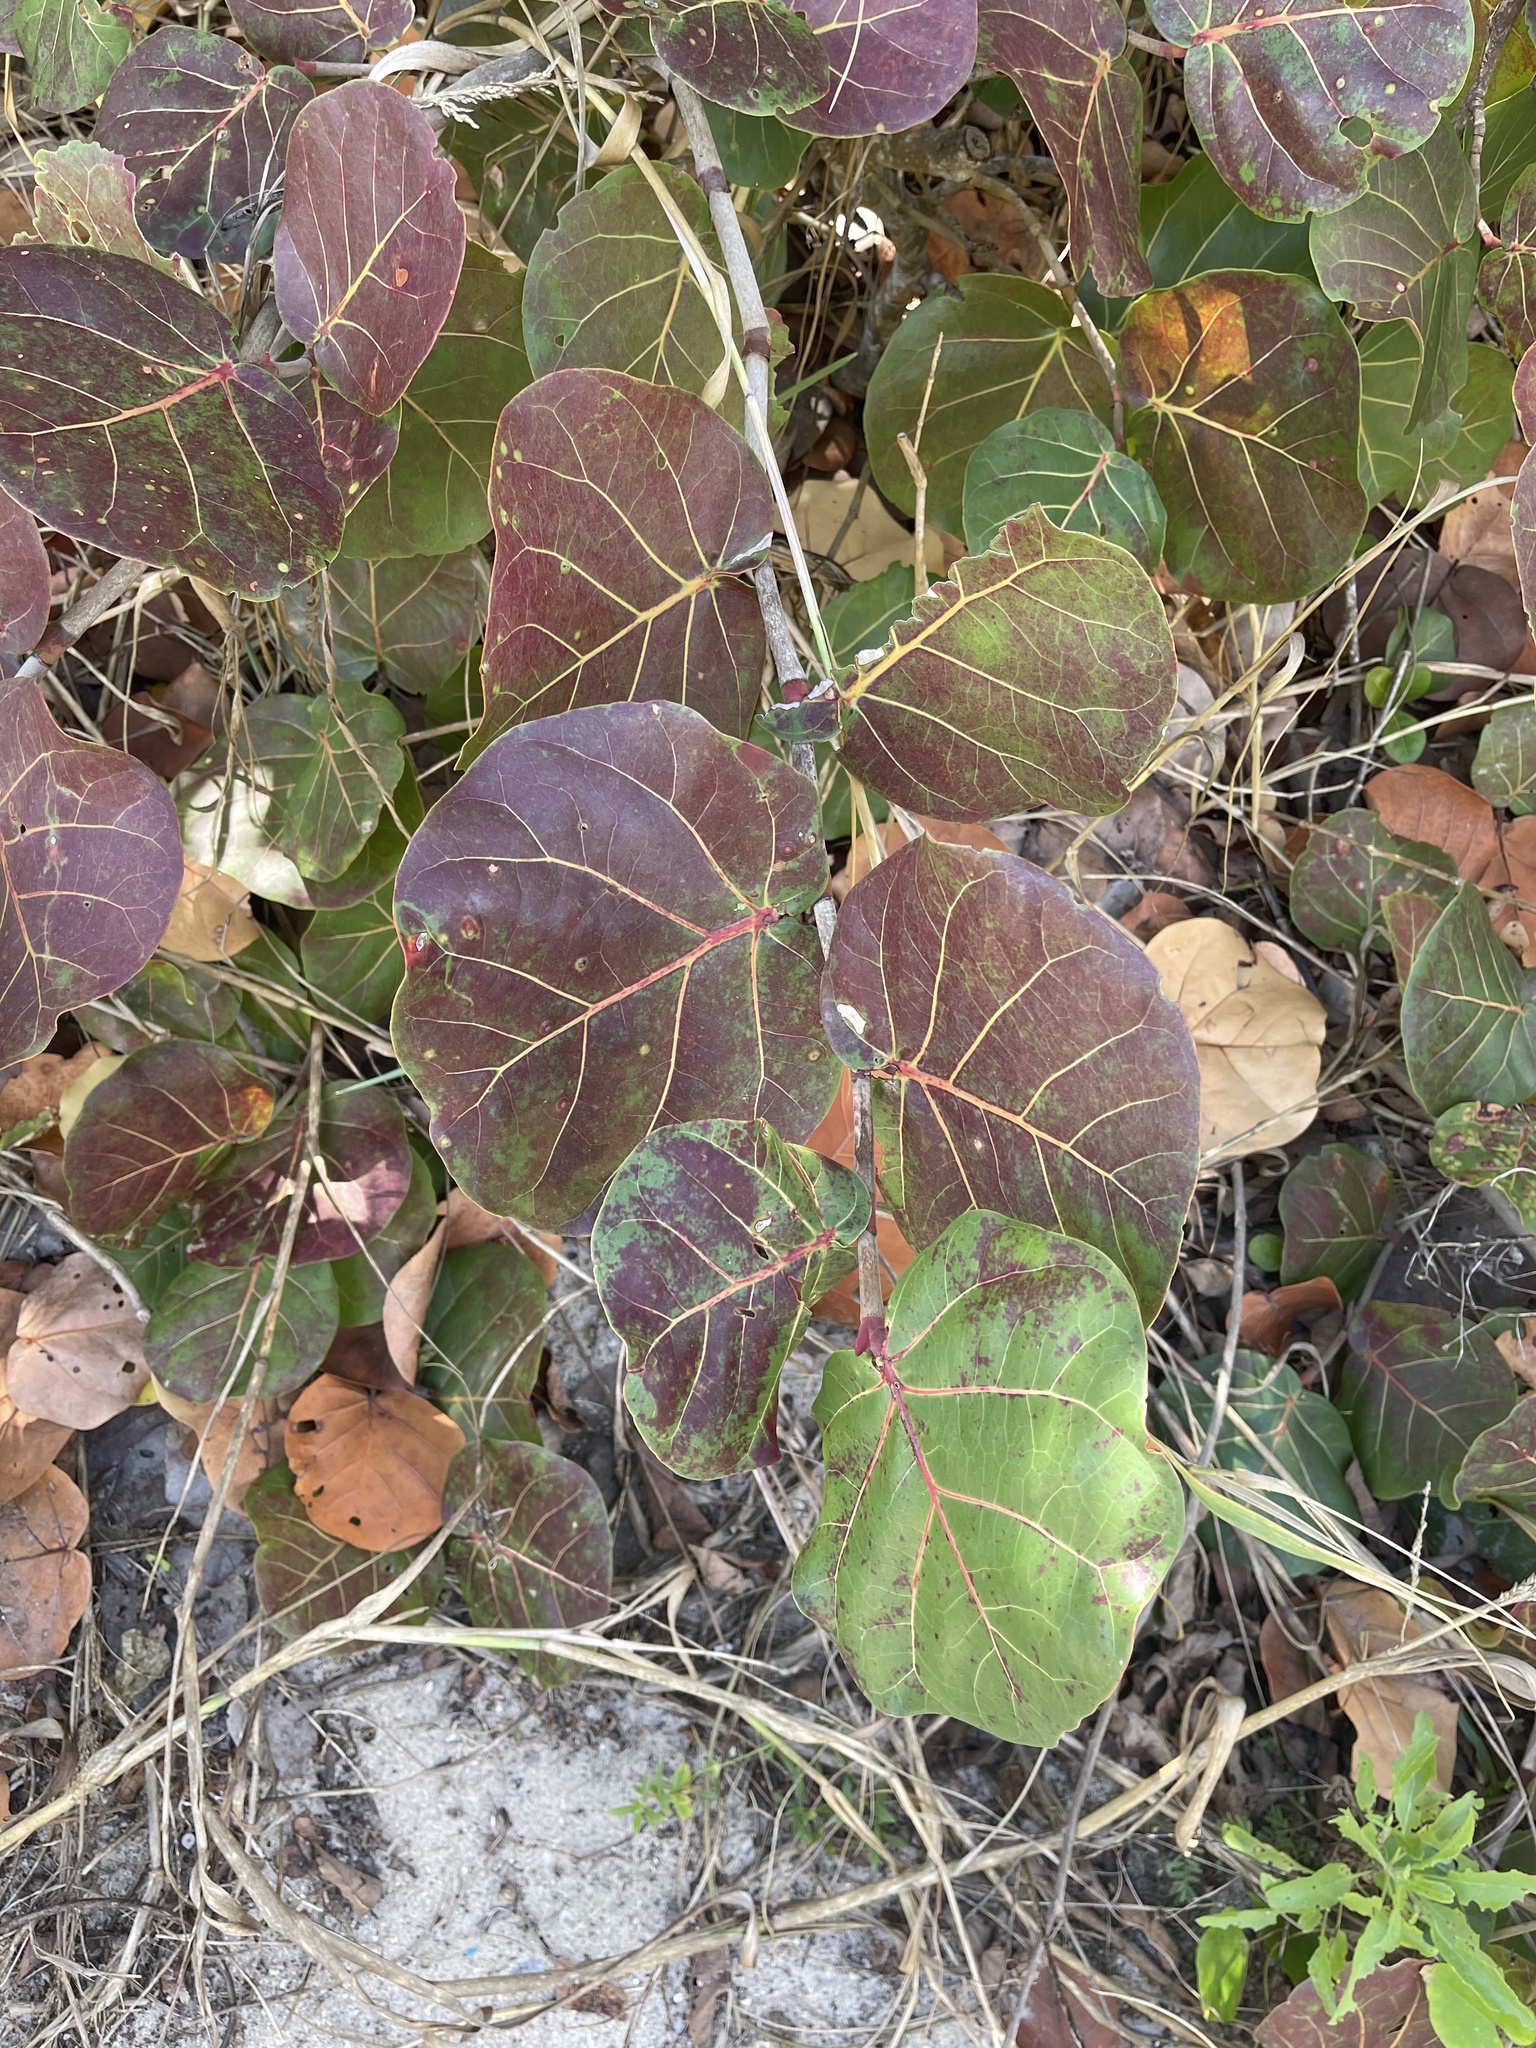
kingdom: Plantae
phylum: Tracheophyta
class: Magnoliopsida
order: Caryophyllales
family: Polygonaceae
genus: Coccoloba
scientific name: Coccoloba uvifera
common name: Seagrape
